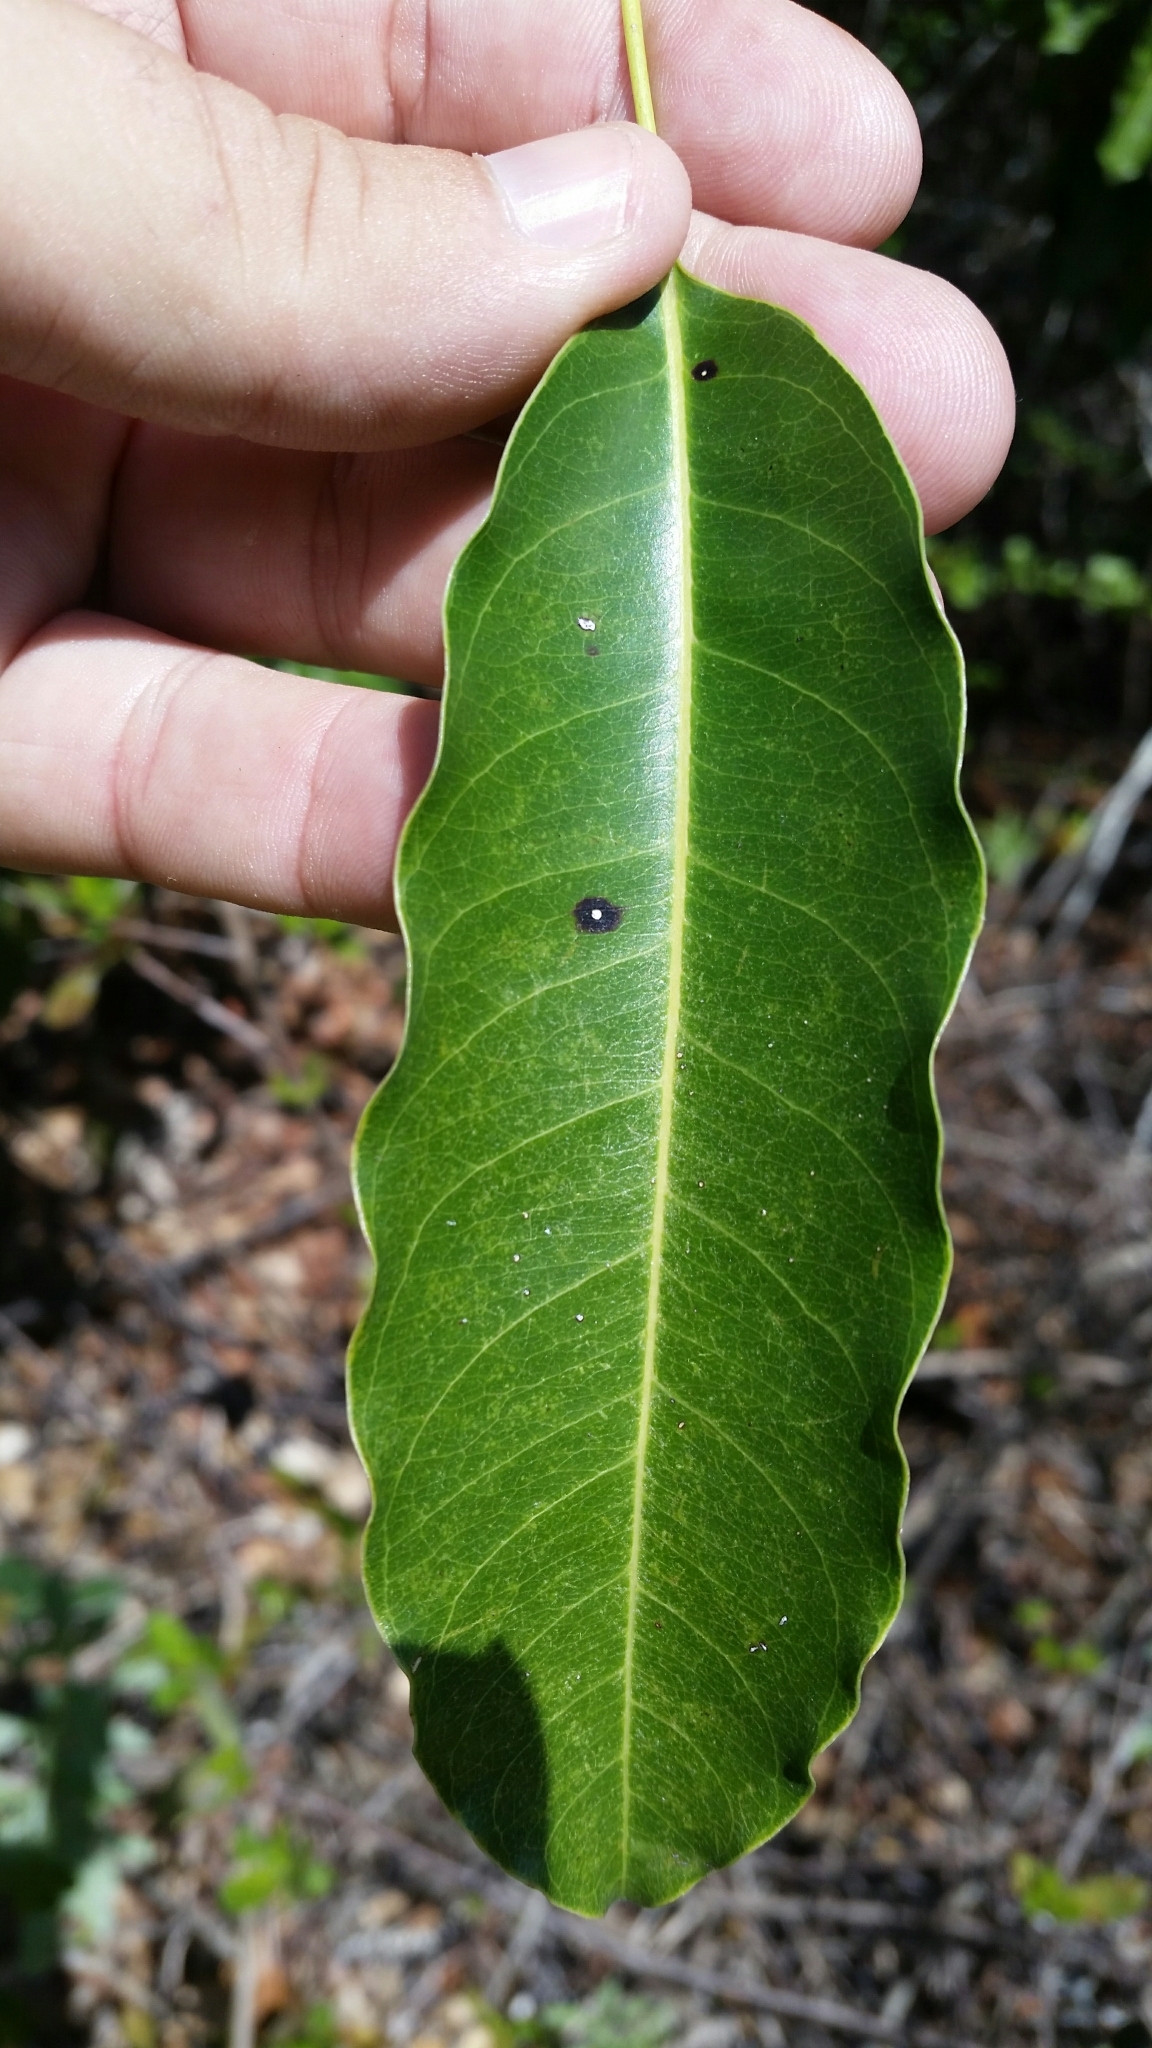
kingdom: Plantae
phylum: Tracheophyta
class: Magnoliopsida
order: Ericales
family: Sapotaceae
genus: Sideroxylon
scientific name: Sideroxylon foetidissimum
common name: Barbados-mastic
